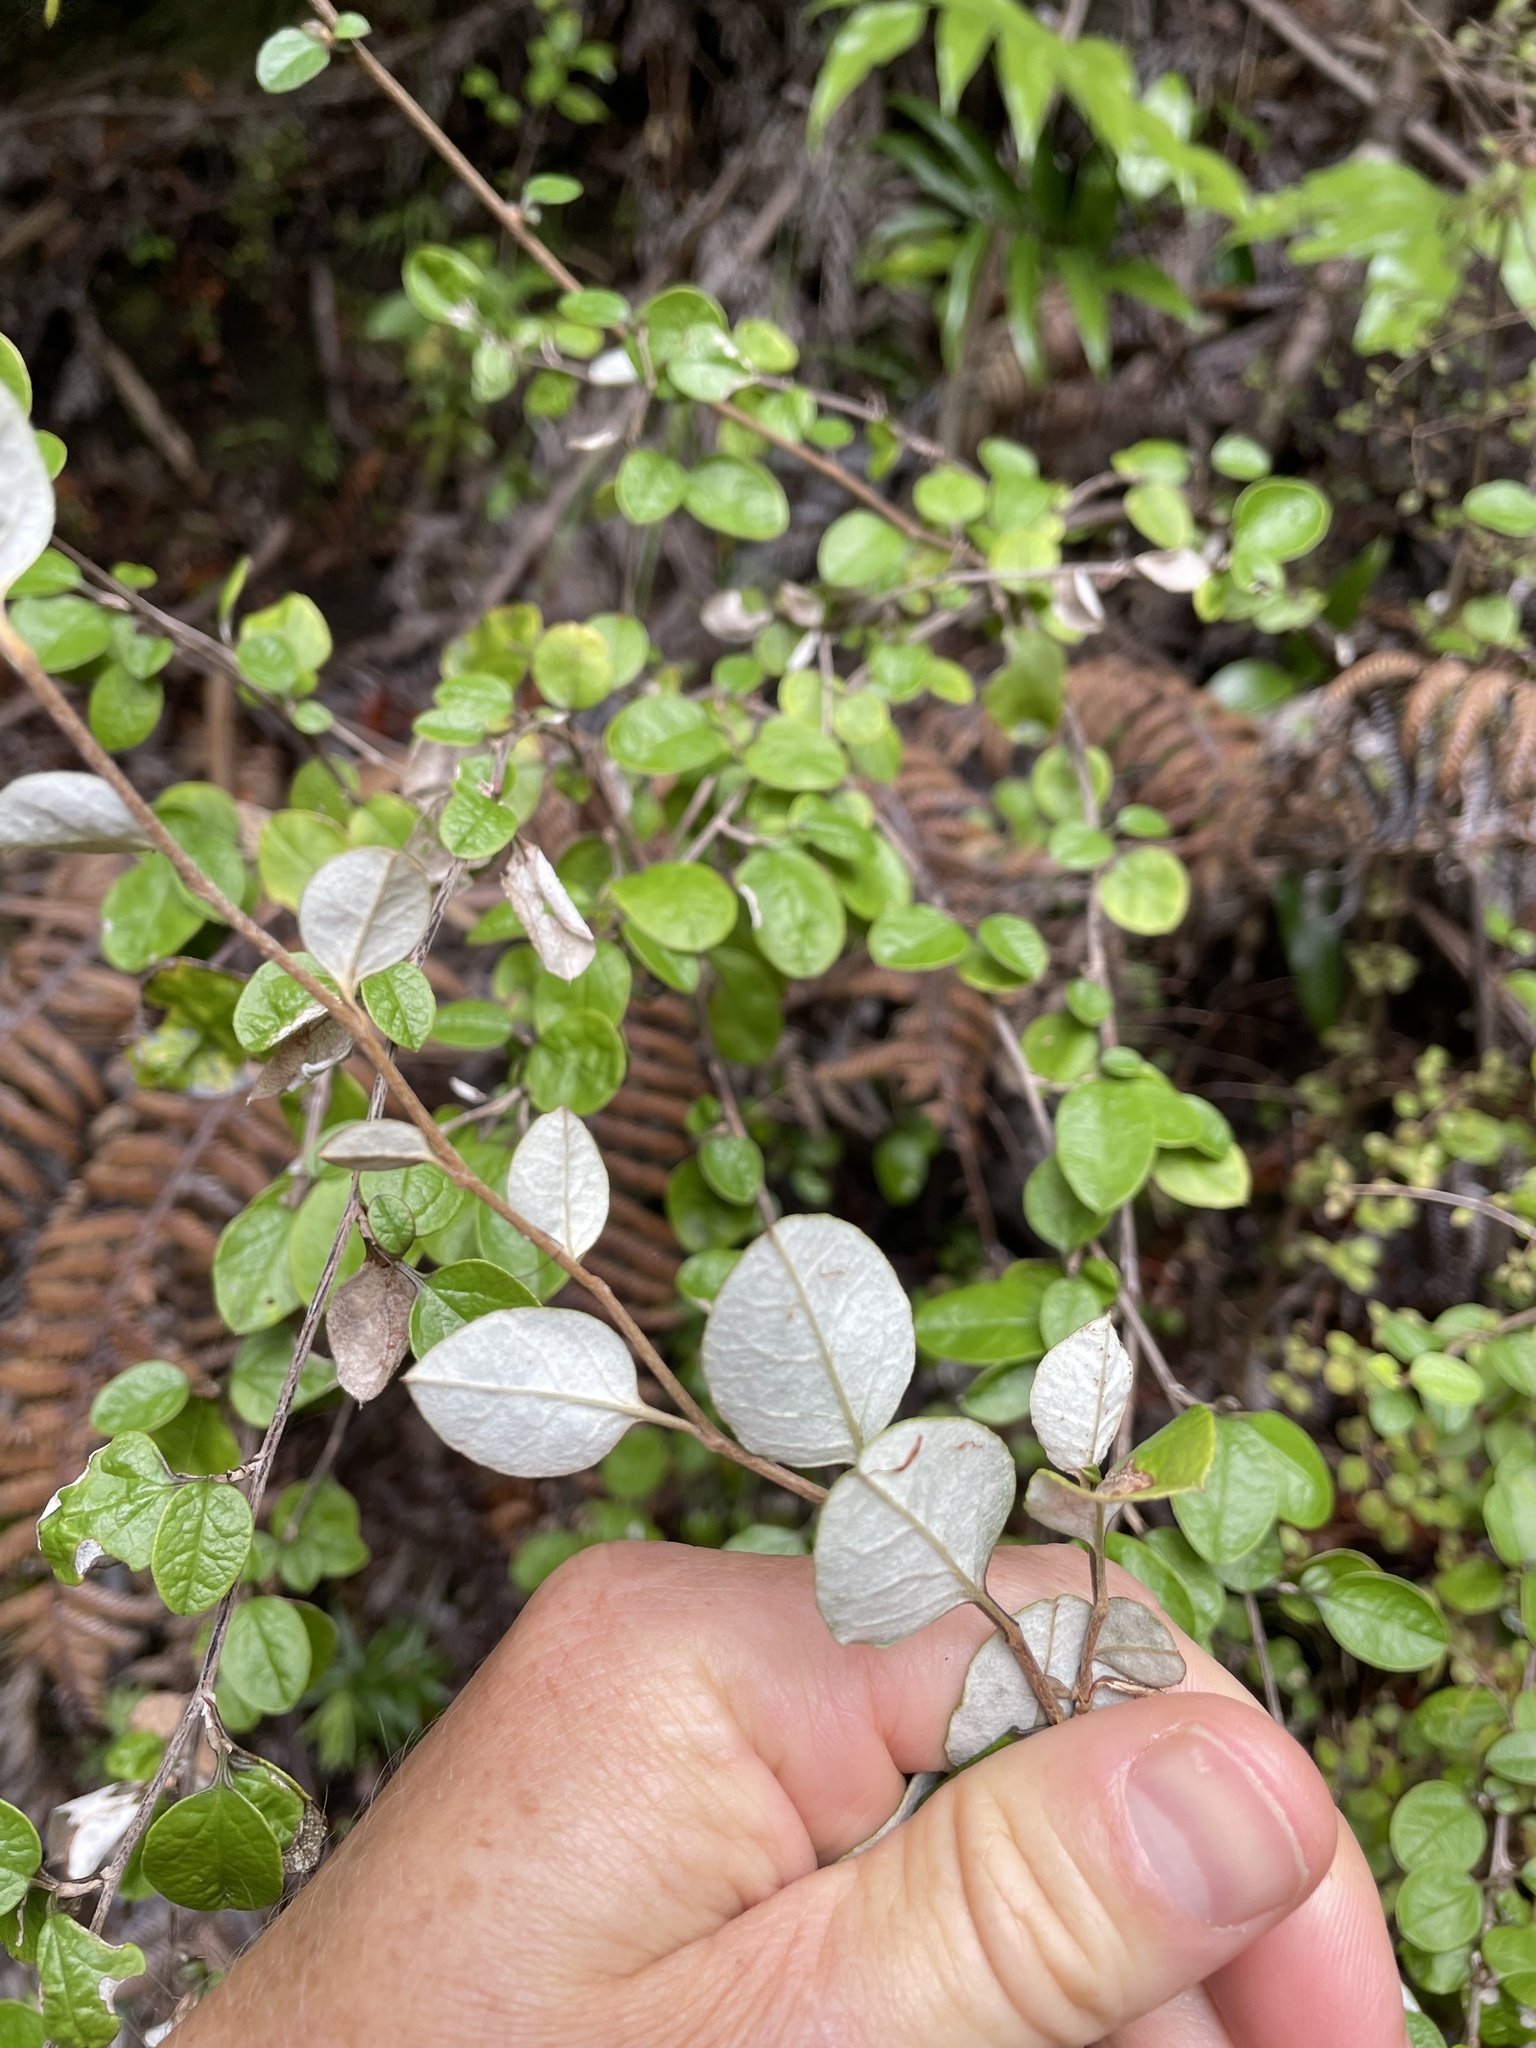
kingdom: Plantae
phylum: Tracheophyta
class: Magnoliopsida
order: Asterales
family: Asteraceae
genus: Ozothamnus
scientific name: Ozothamnus glomeratus
